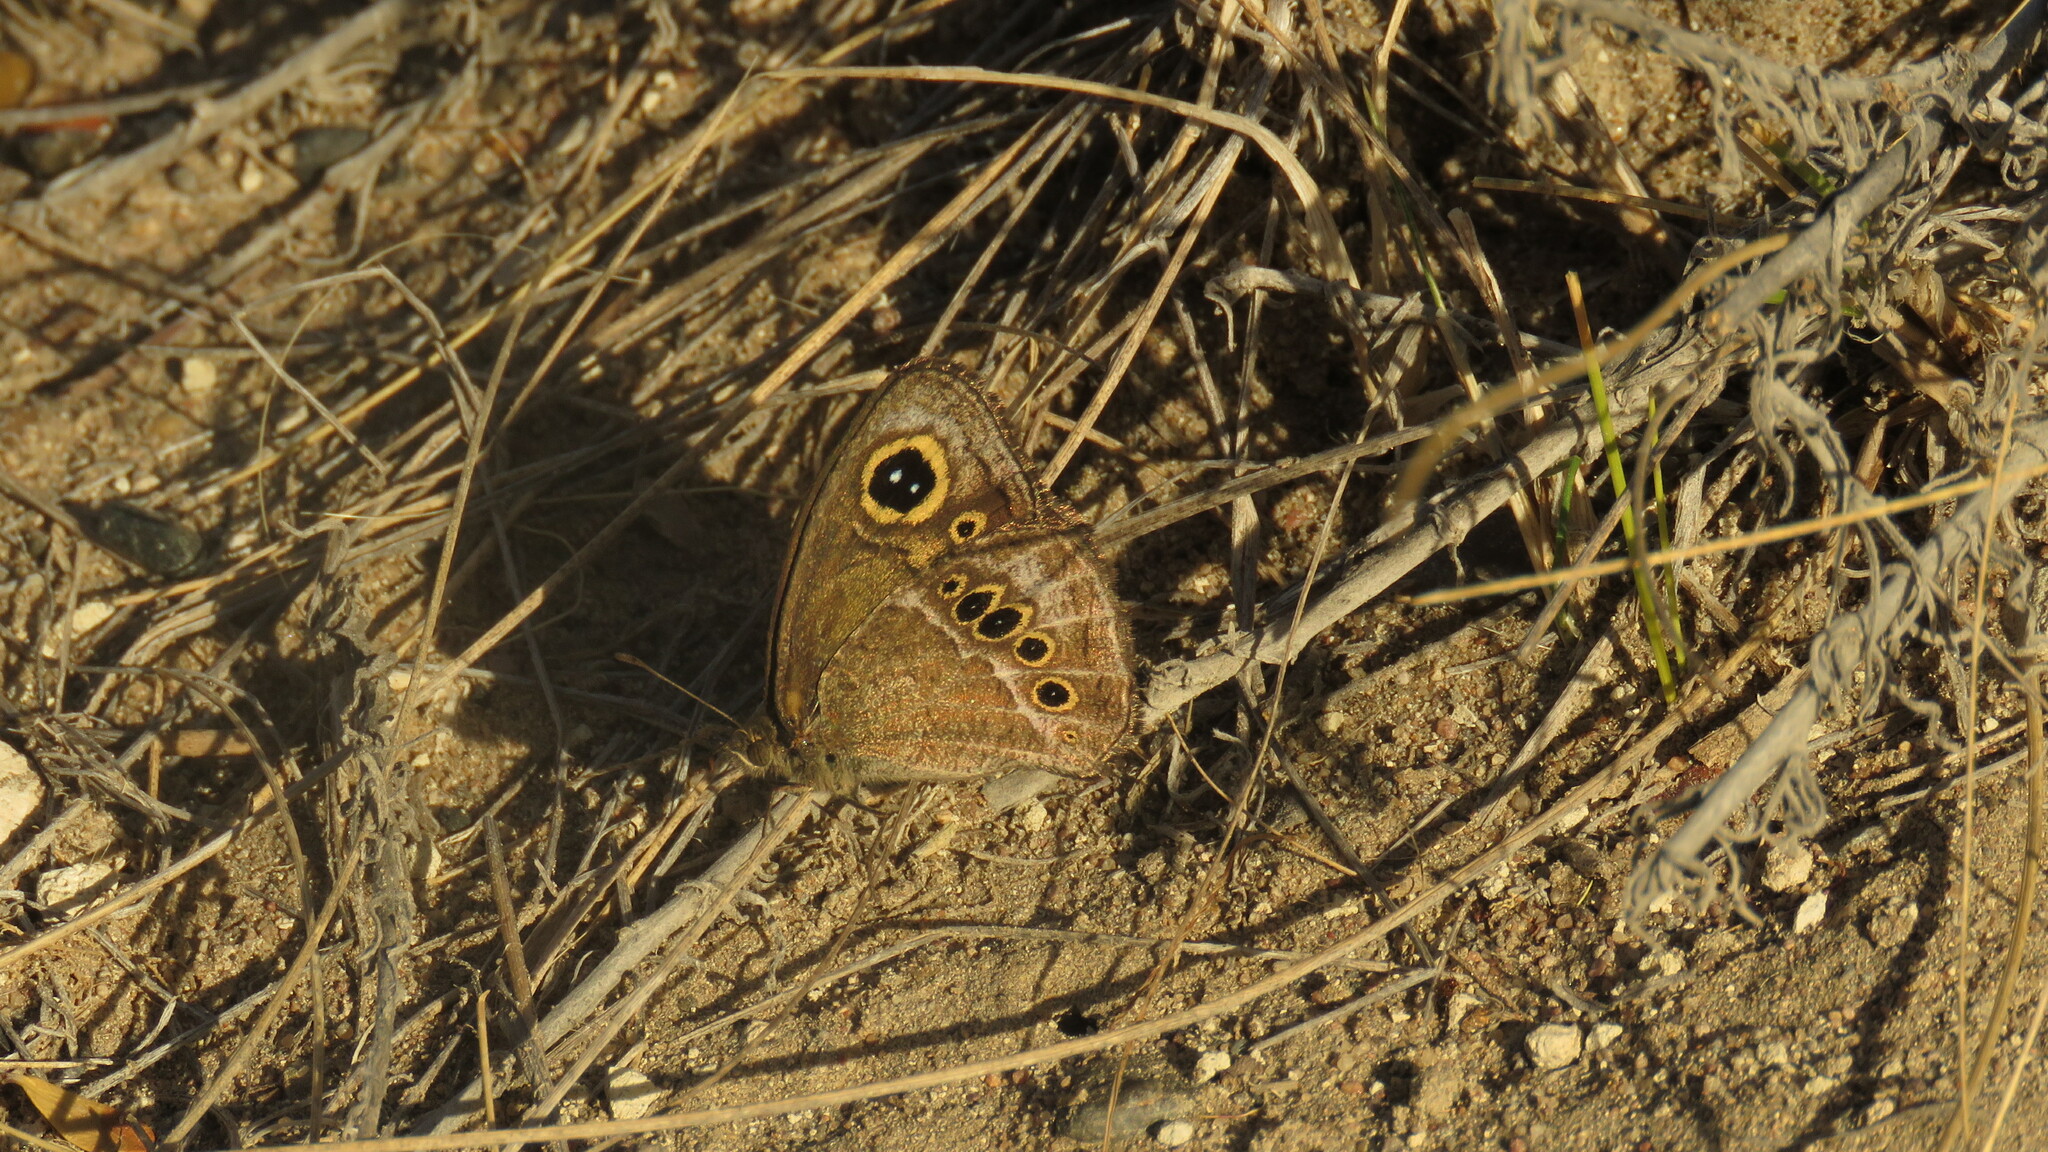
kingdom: Animalia
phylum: Arthropoda
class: Insecta
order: Lepidoptera
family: Nymphalidae
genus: Pampasatyrus
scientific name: Pampasatyrus gyrtone
